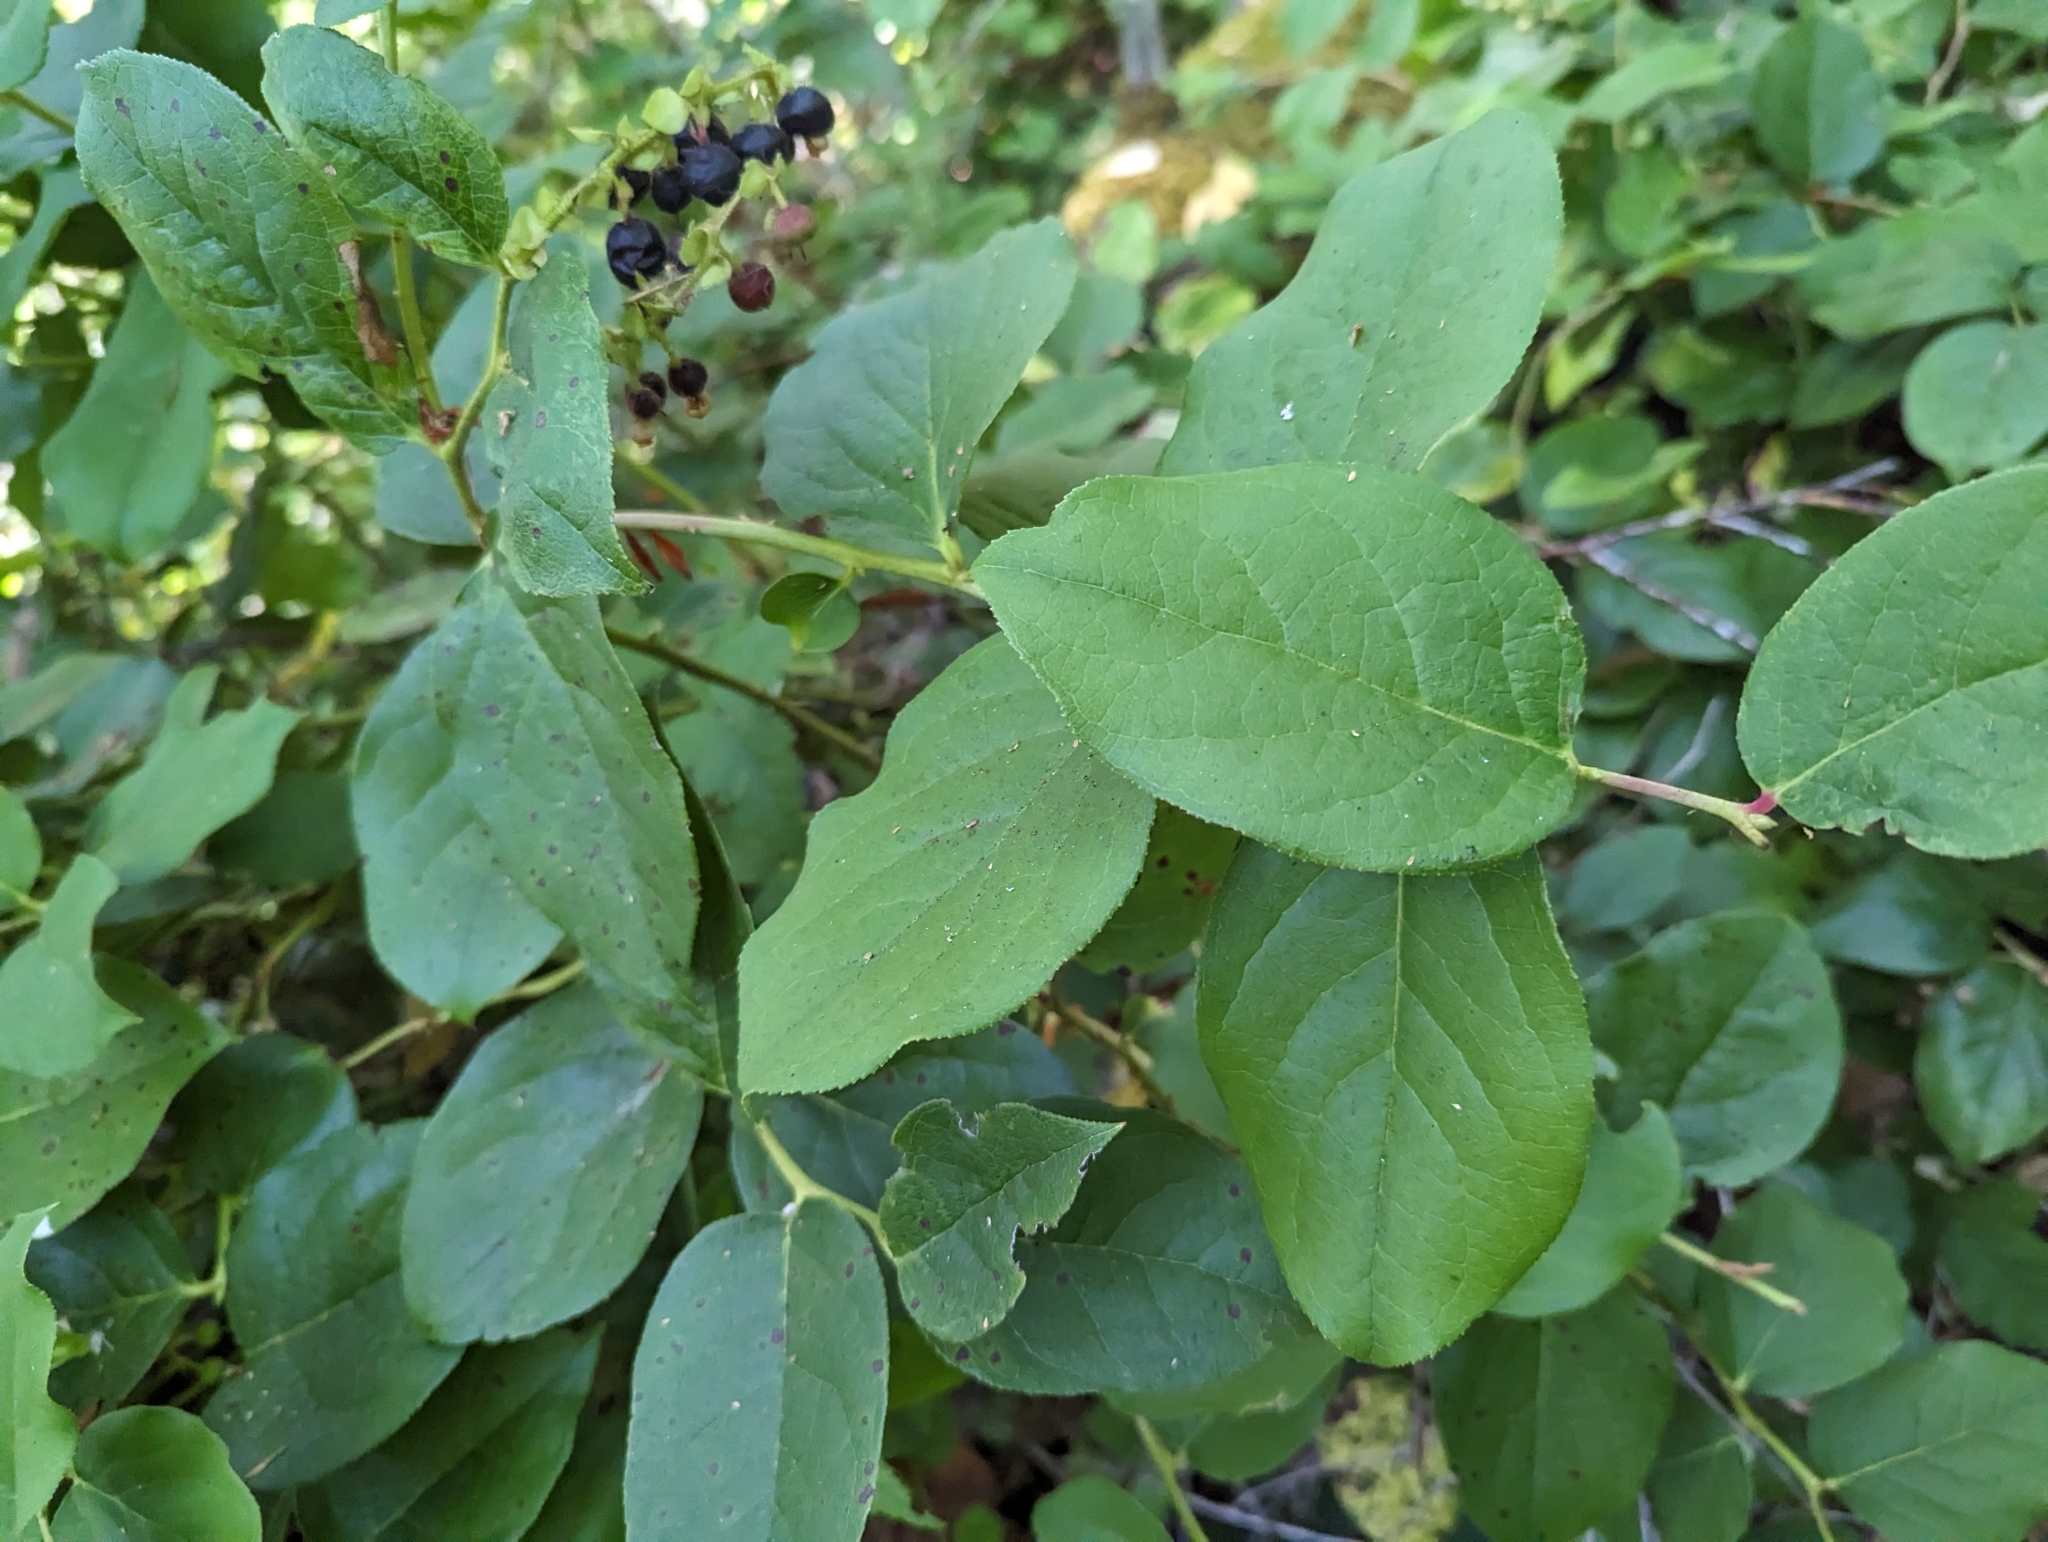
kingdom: Plantae
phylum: Tracheophyta
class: Magnoliopsida
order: Ericales
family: Ericaceae
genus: Gaultheria
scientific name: Gaultheria shallon
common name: Shallon
